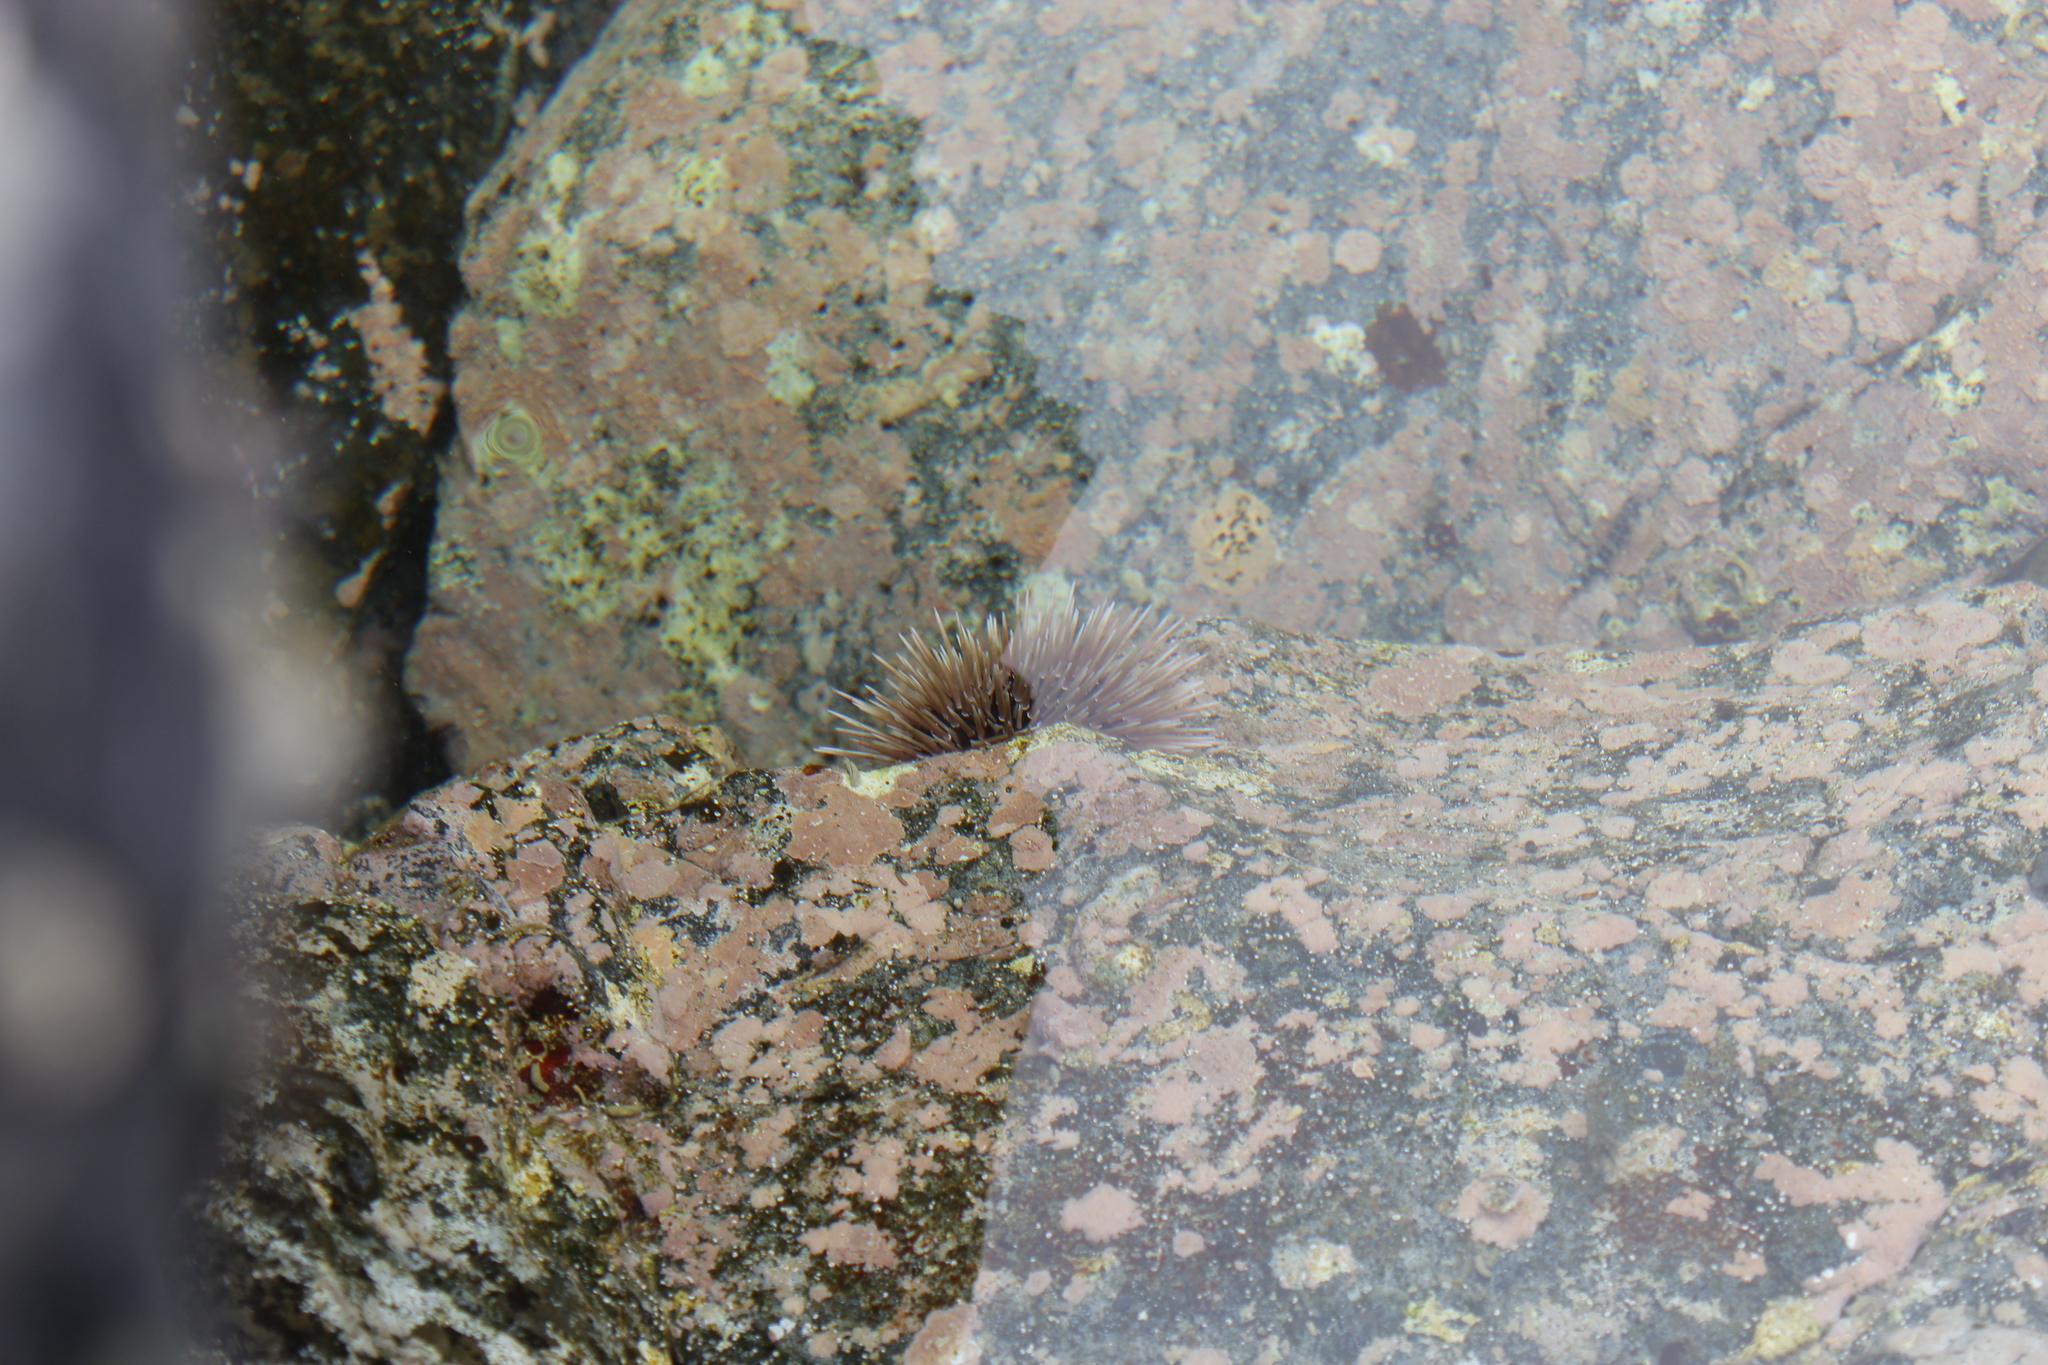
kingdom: Animalia
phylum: Echinodermata
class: Echinoidea
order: Camarodonta
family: Echinometridae
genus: Echinometra
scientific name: Echinometra mathaei
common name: Rock-boring urchin
